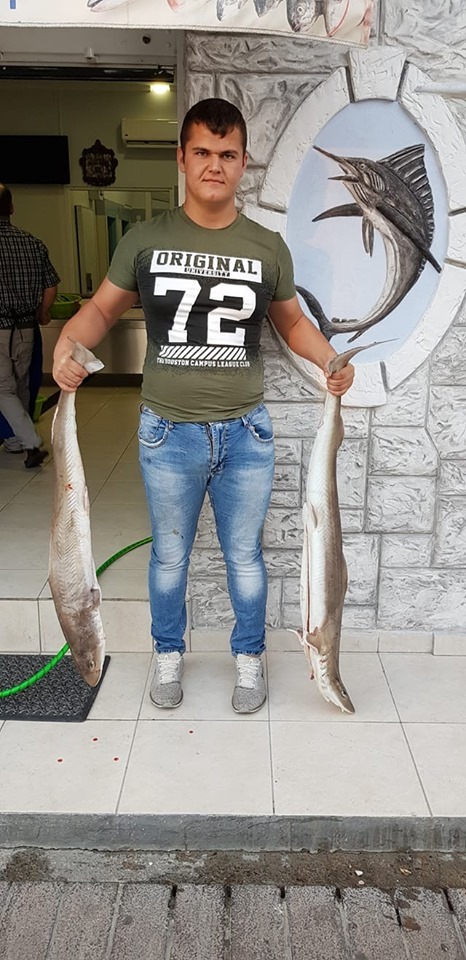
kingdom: Animalia
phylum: Chordata
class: Elasmobranchii
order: Carcharhiniformes
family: Triakidae
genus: Mustelus
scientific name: Mustelus mustelus
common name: Smooth-hound
